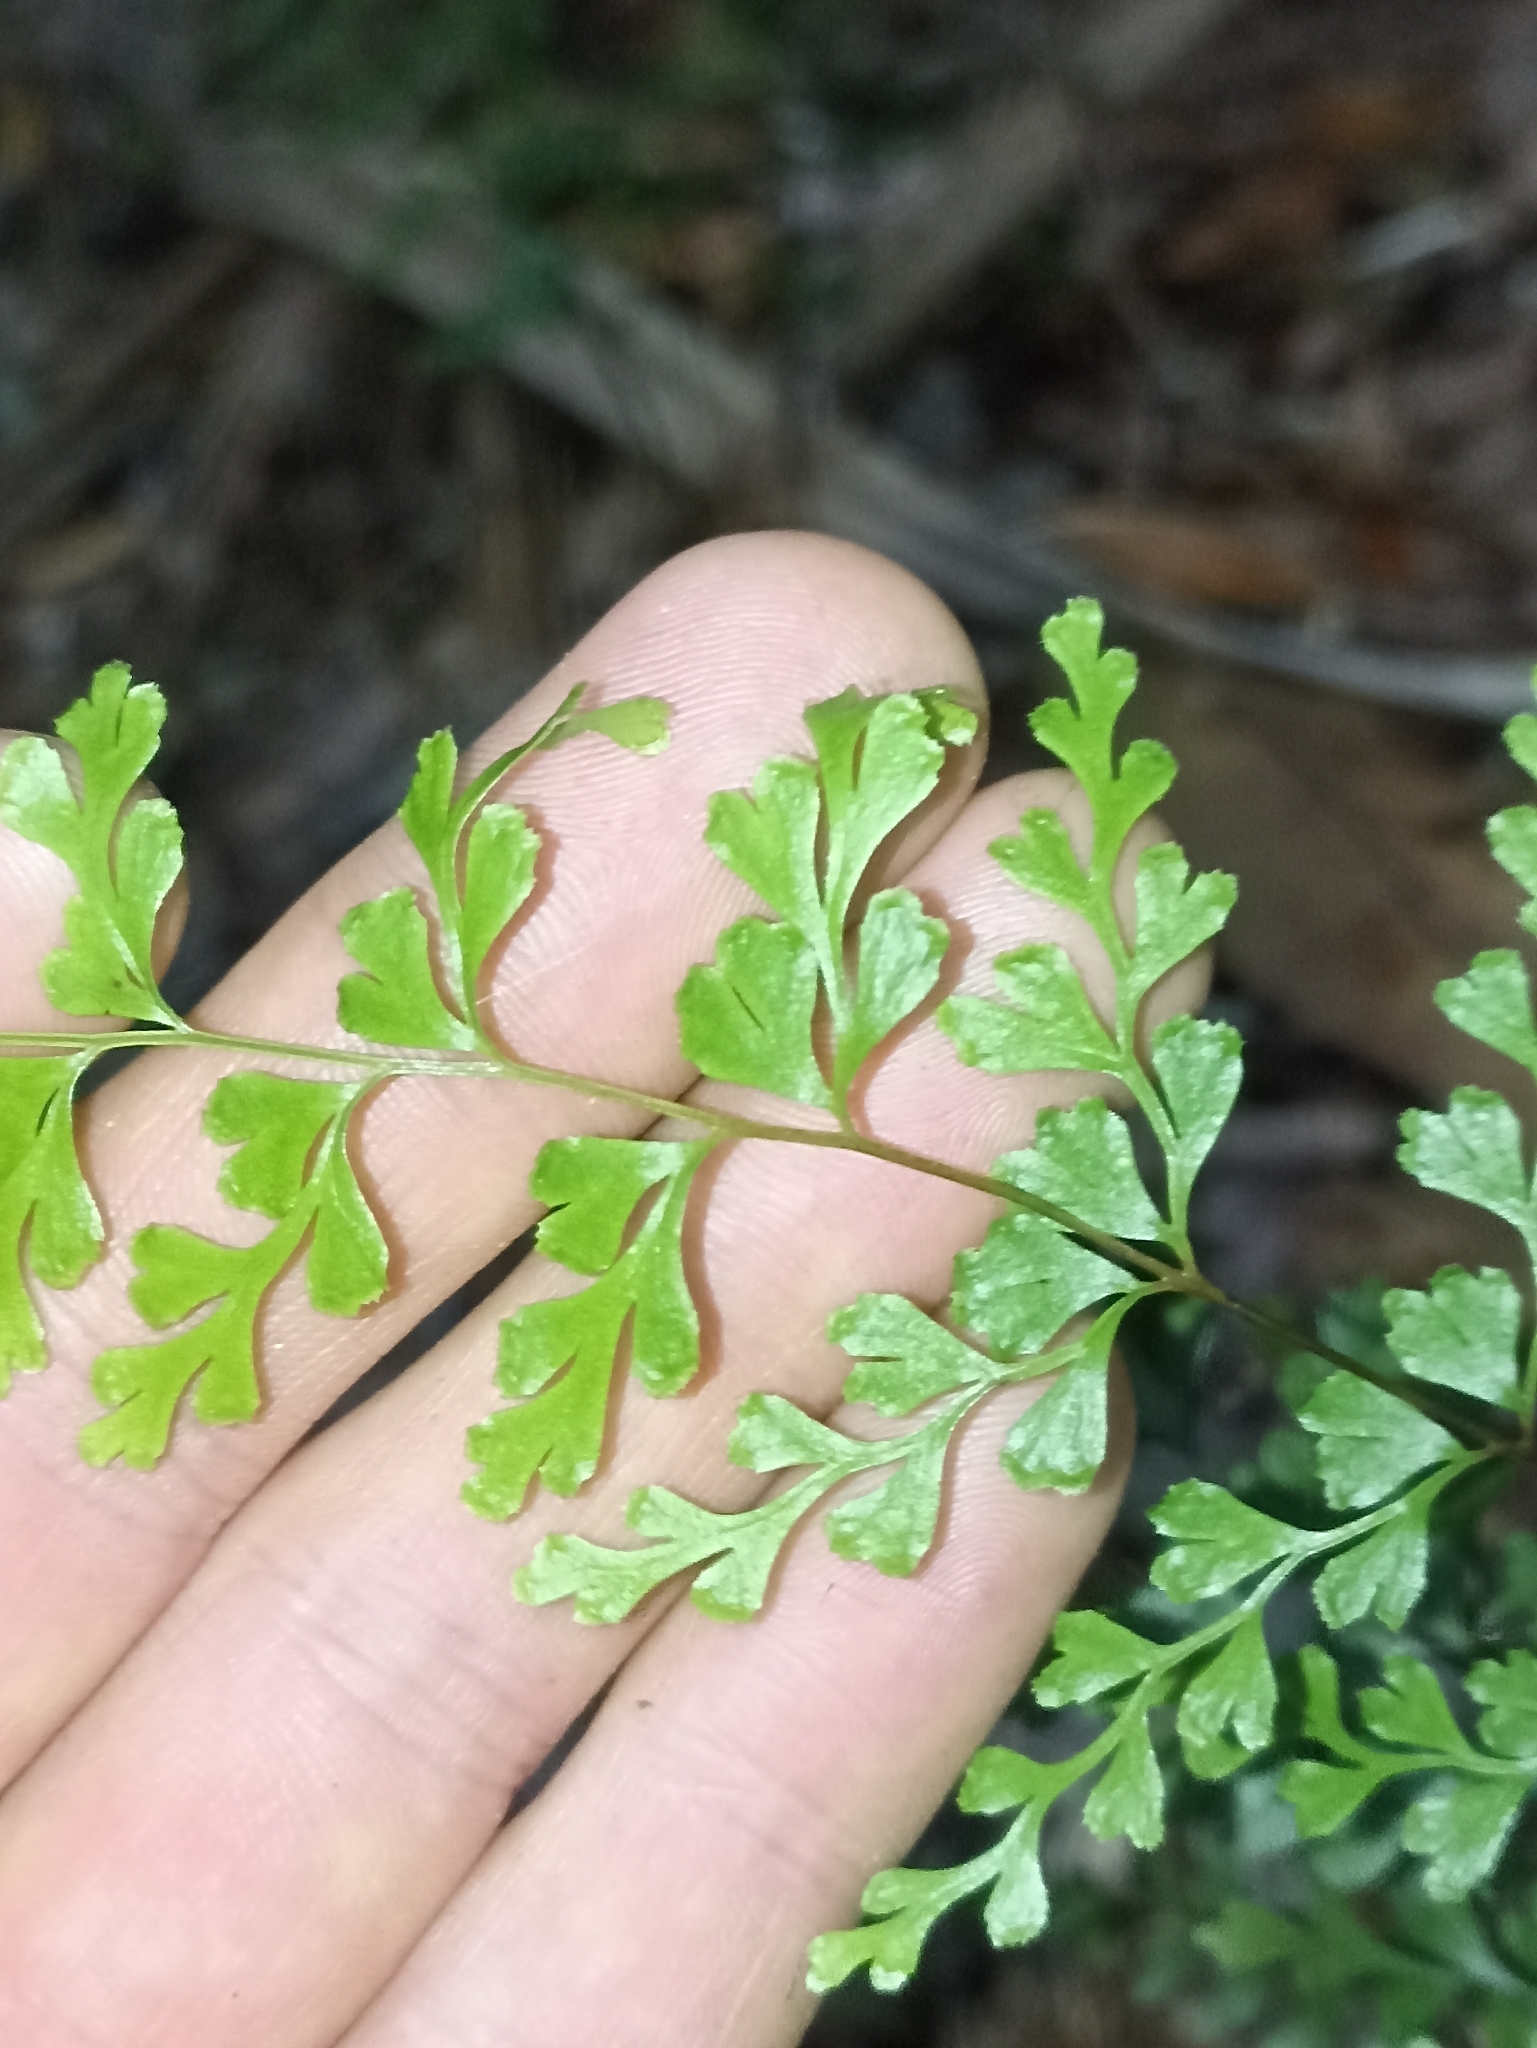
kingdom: Plantae
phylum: Tracheophyta
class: Polypodiopsida
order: Polypodiales
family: Lindsaeaceae
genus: Lindsaea
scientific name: Lindsaea trichomanoides
